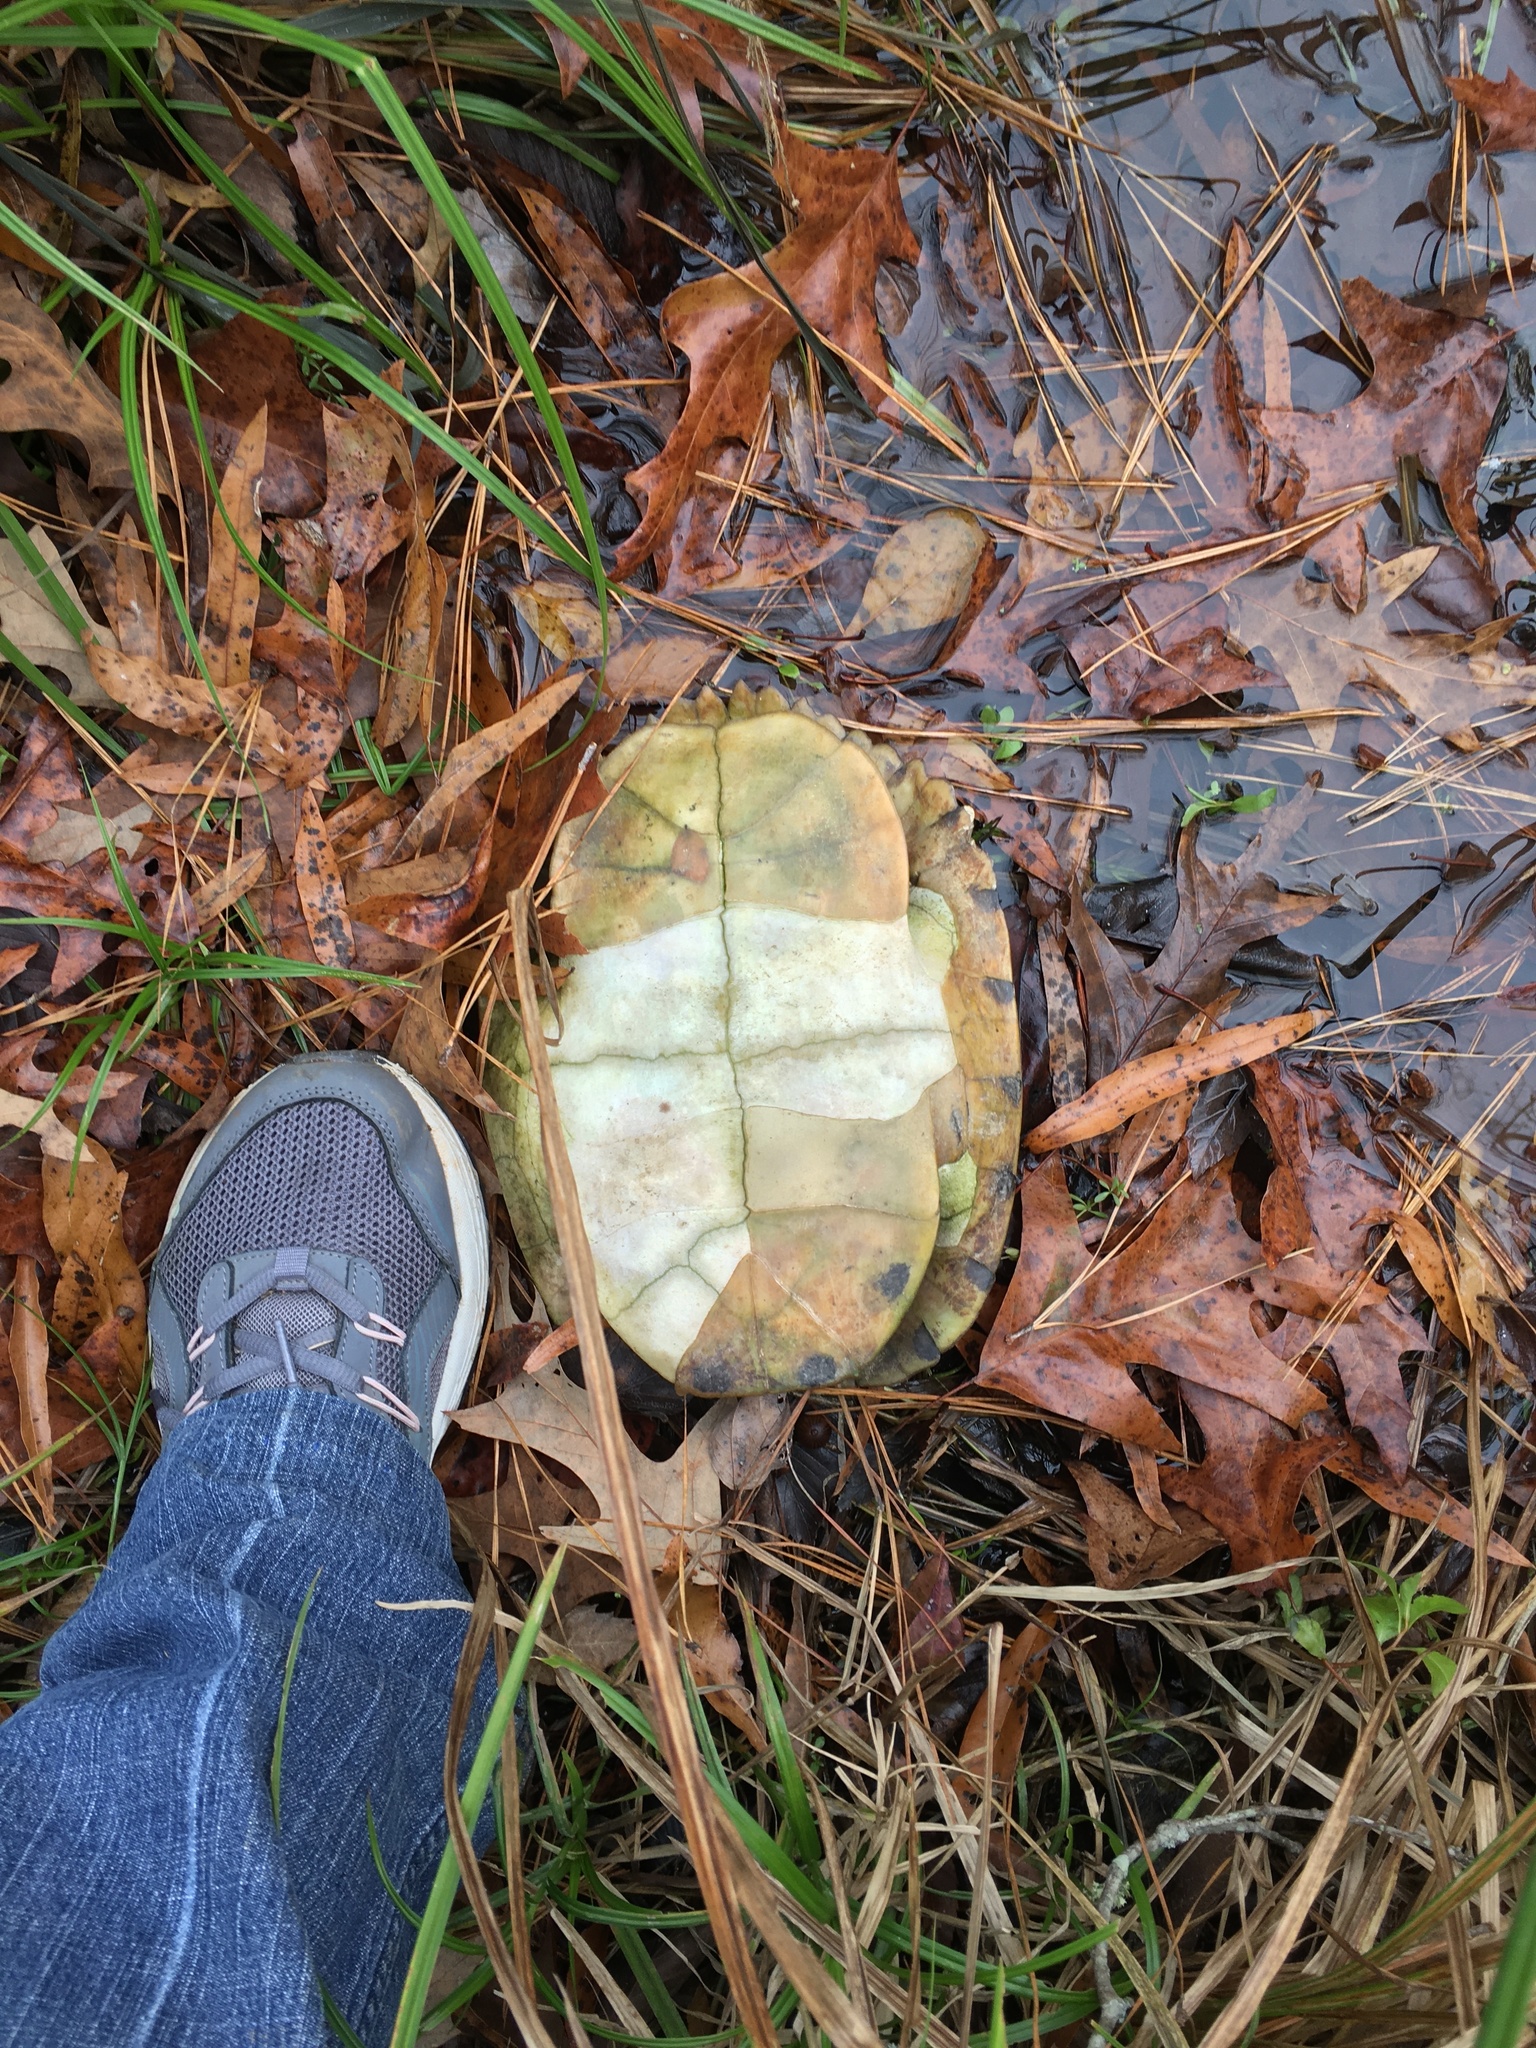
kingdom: Animalia
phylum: Chordata
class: Testudines
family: Emydidae
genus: Trachemys
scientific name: Trachemys scripta
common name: Slider
